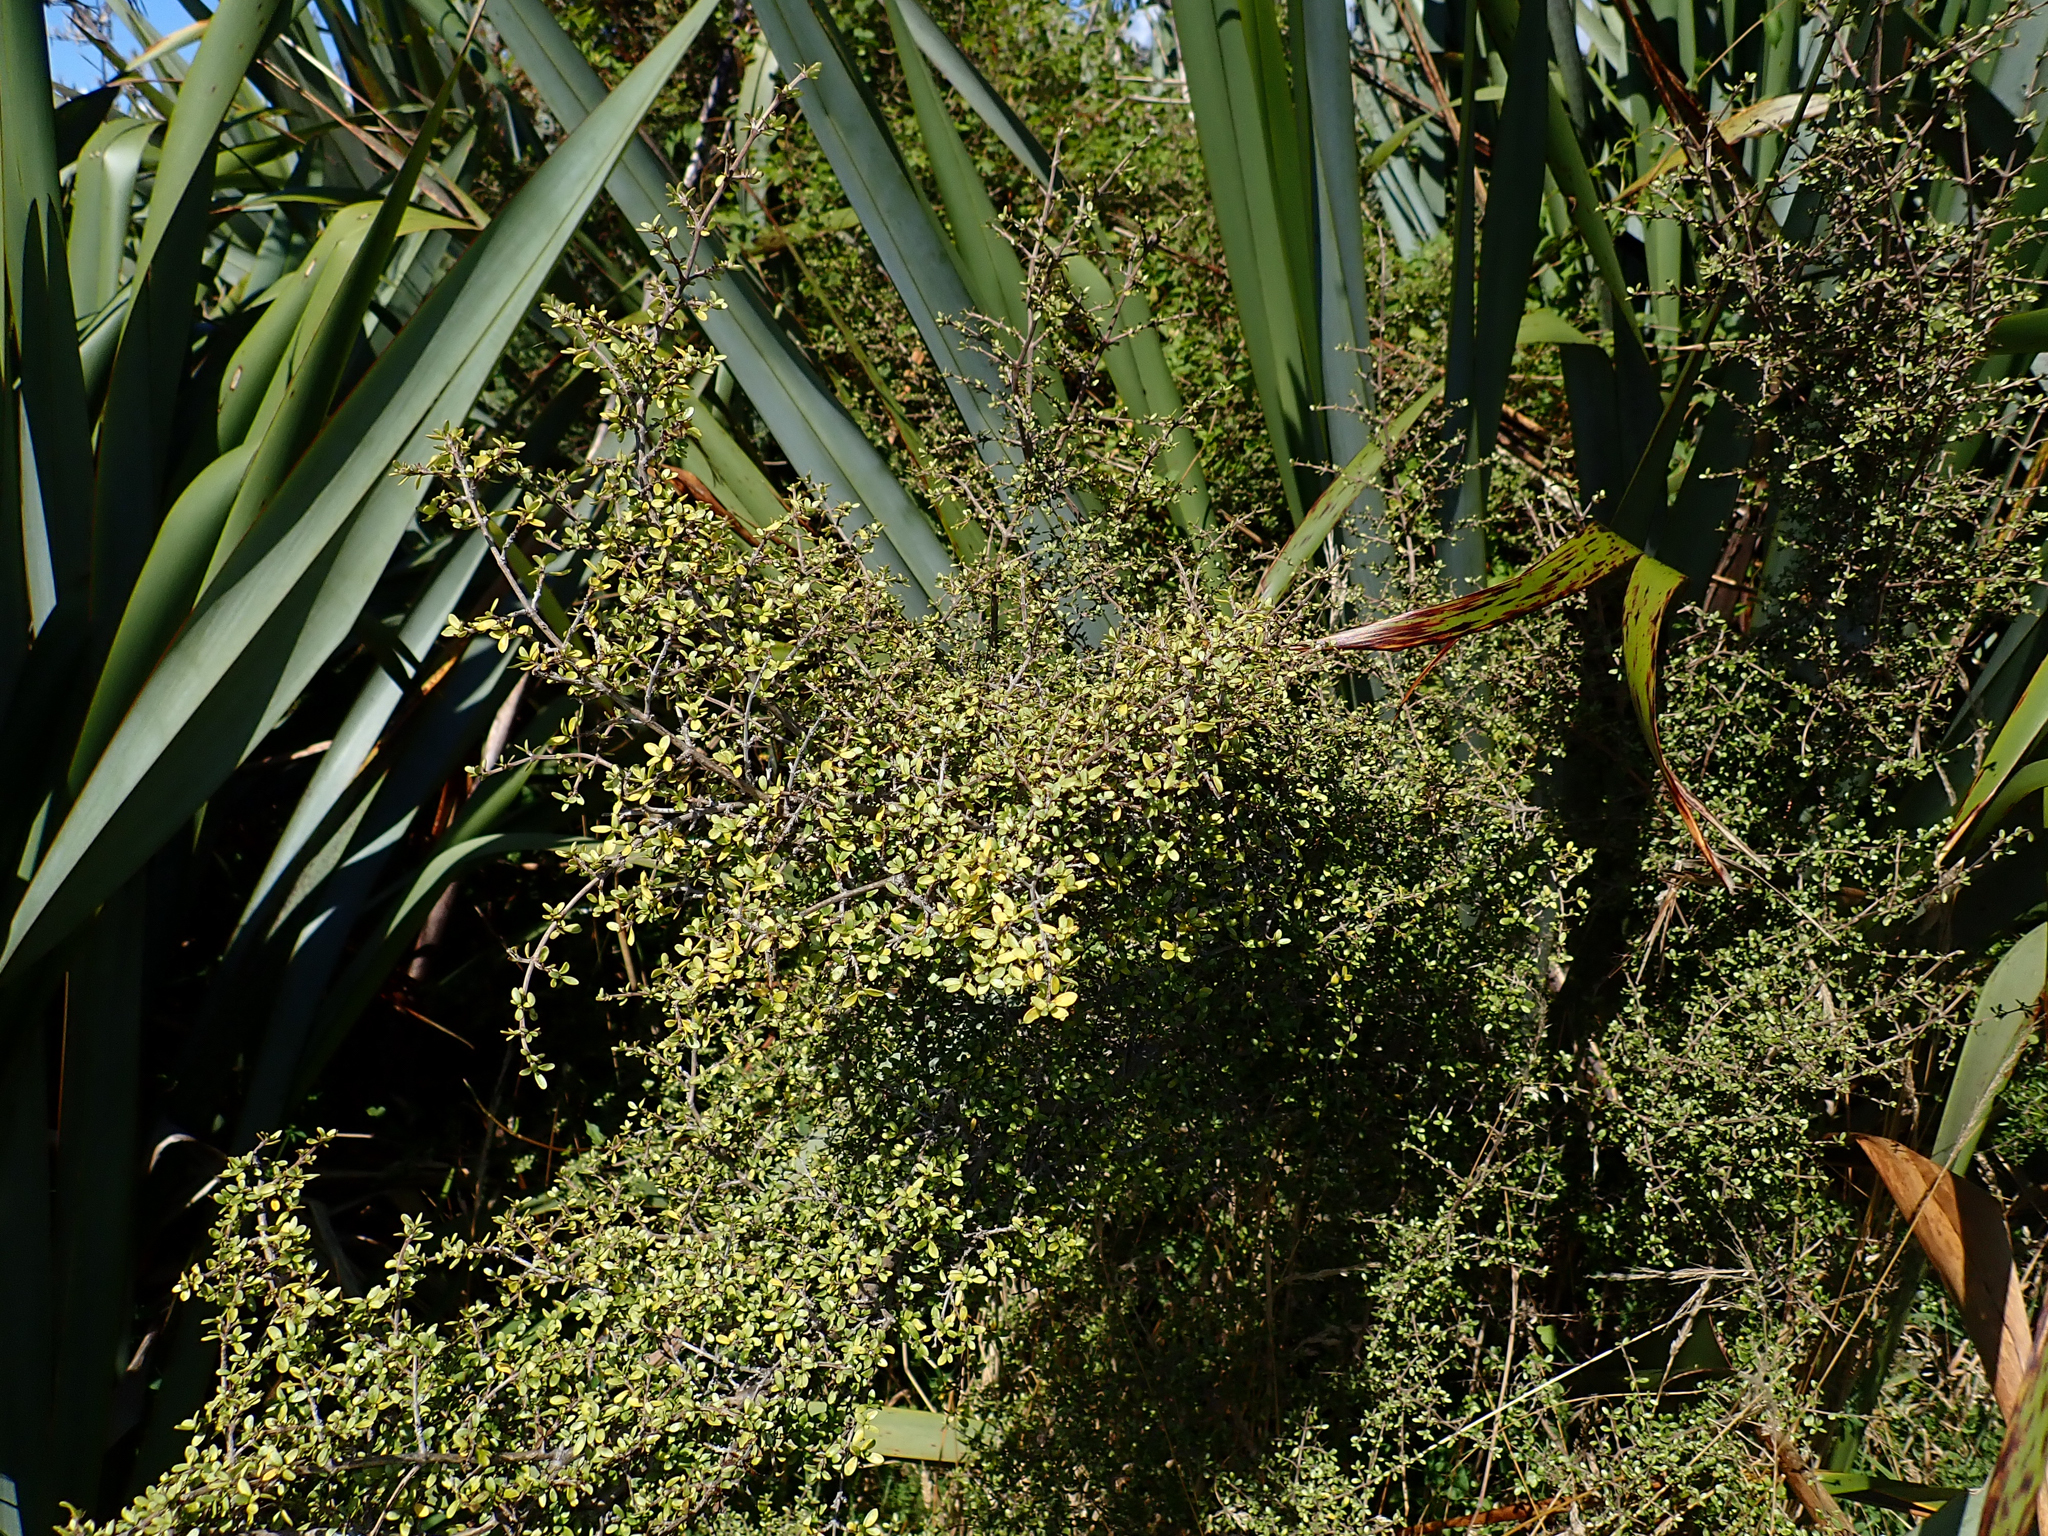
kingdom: Plantae
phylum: Tracheophyta
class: Magnoliopsida
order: Gentianales
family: Rubiaceae
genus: Coprosma
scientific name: Coprosma dumosa
